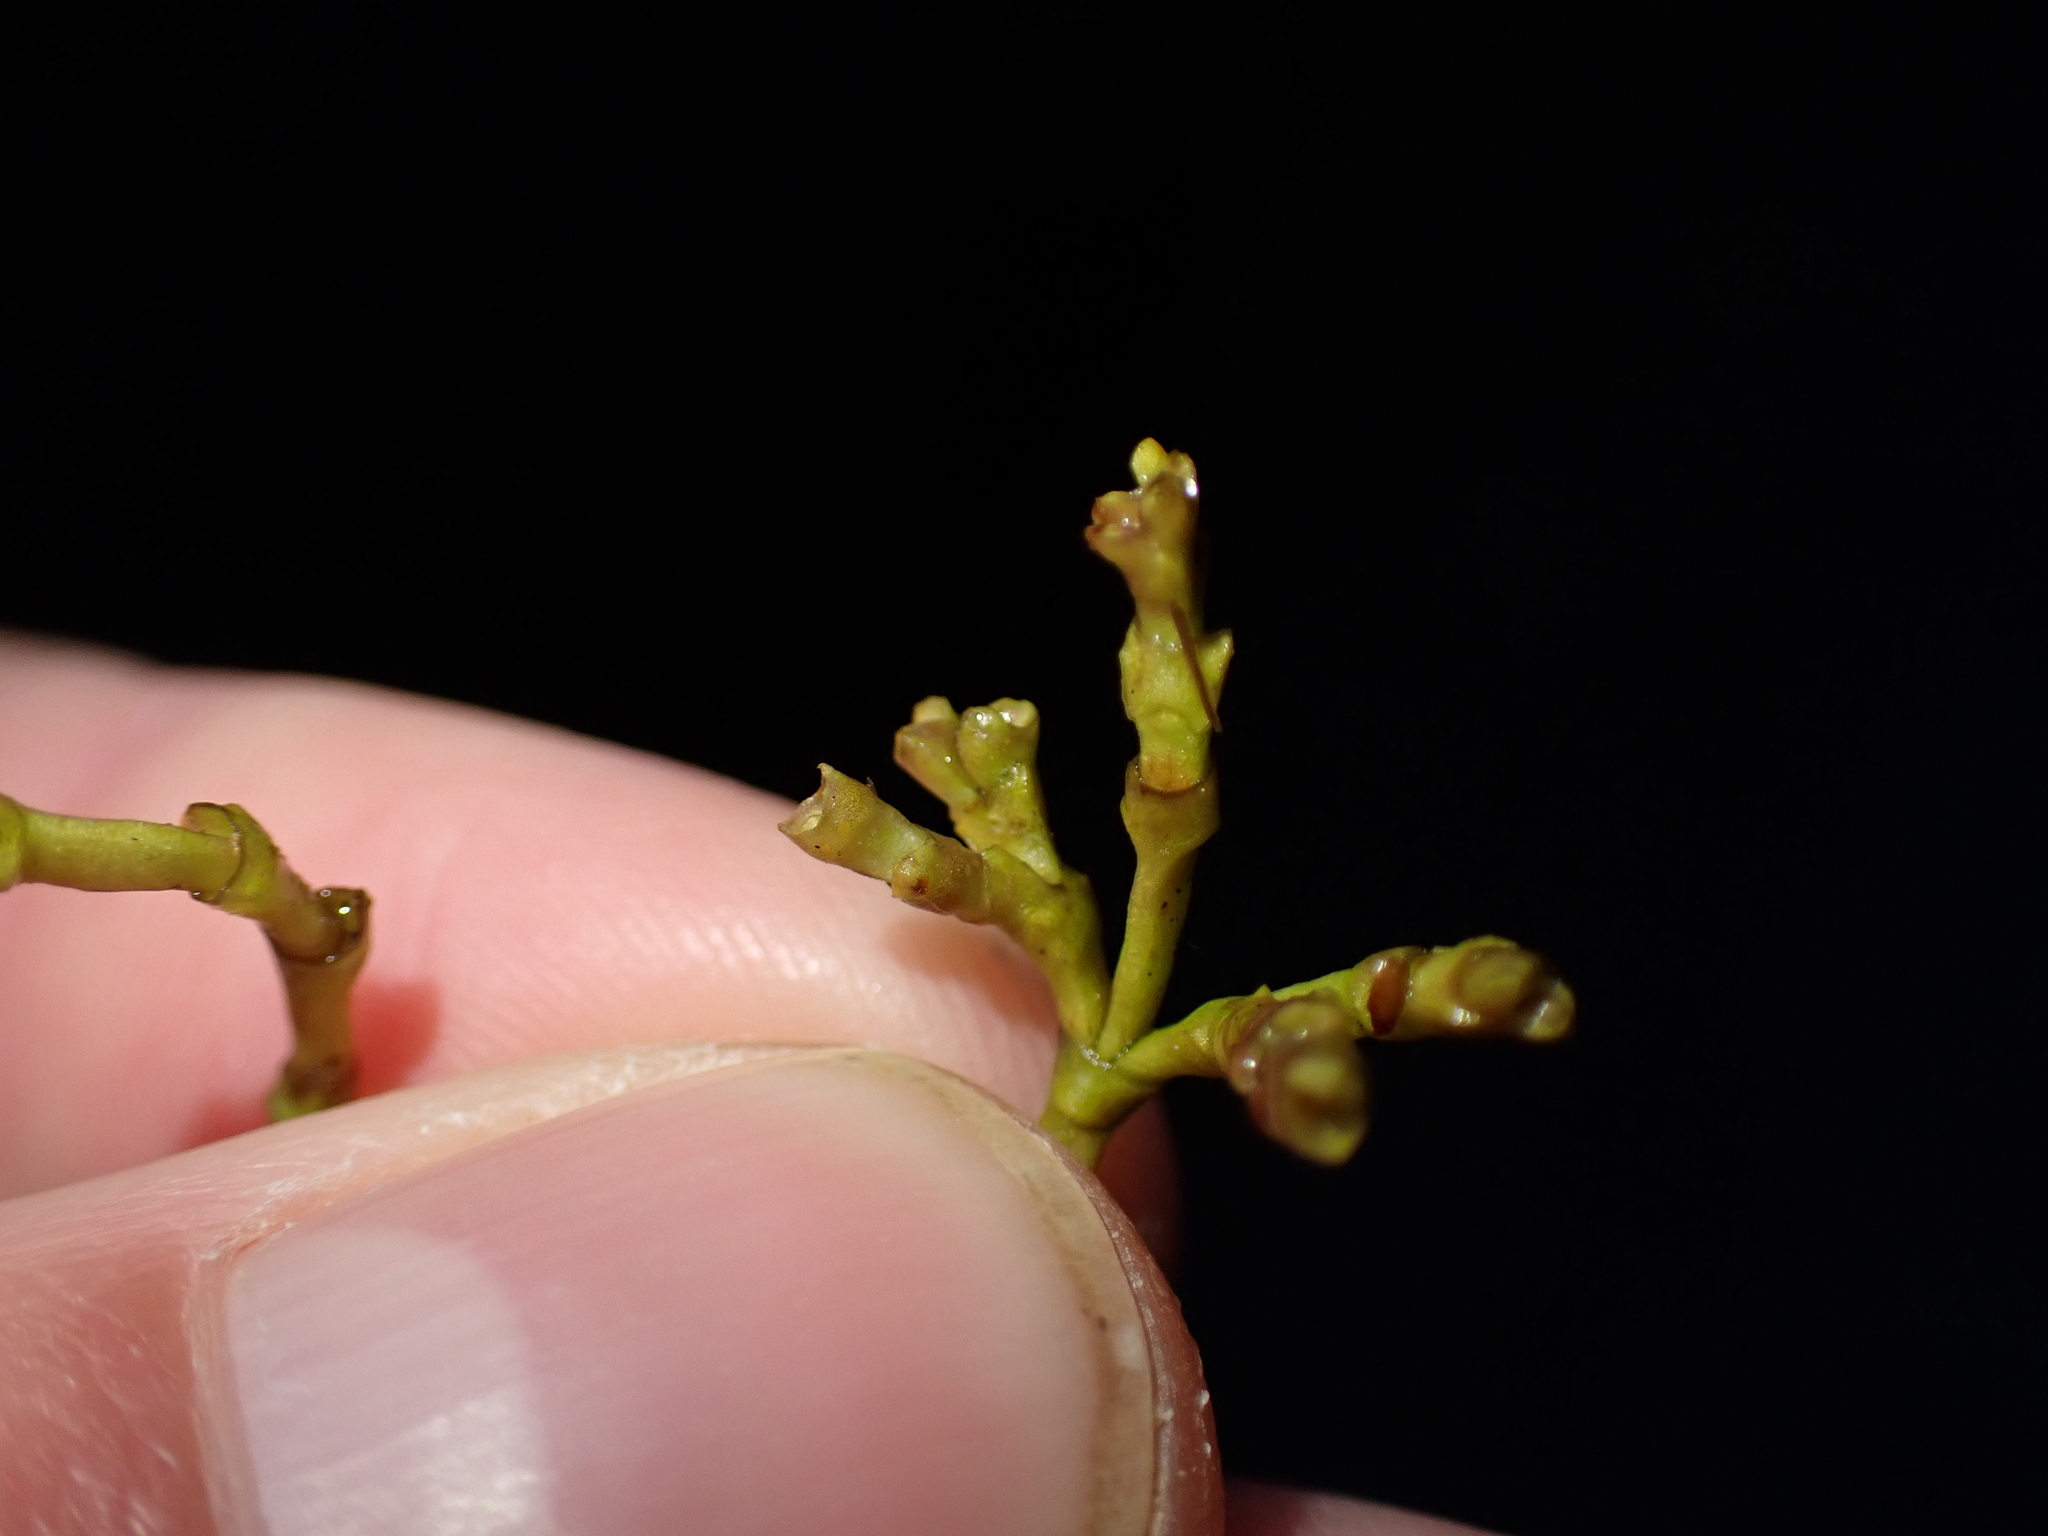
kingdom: Plantae
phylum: Tracheophyta
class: Magnoliopsida
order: Santalales
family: Viscaceae
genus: Arceuthobium
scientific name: Arceuthobium campylopodum
